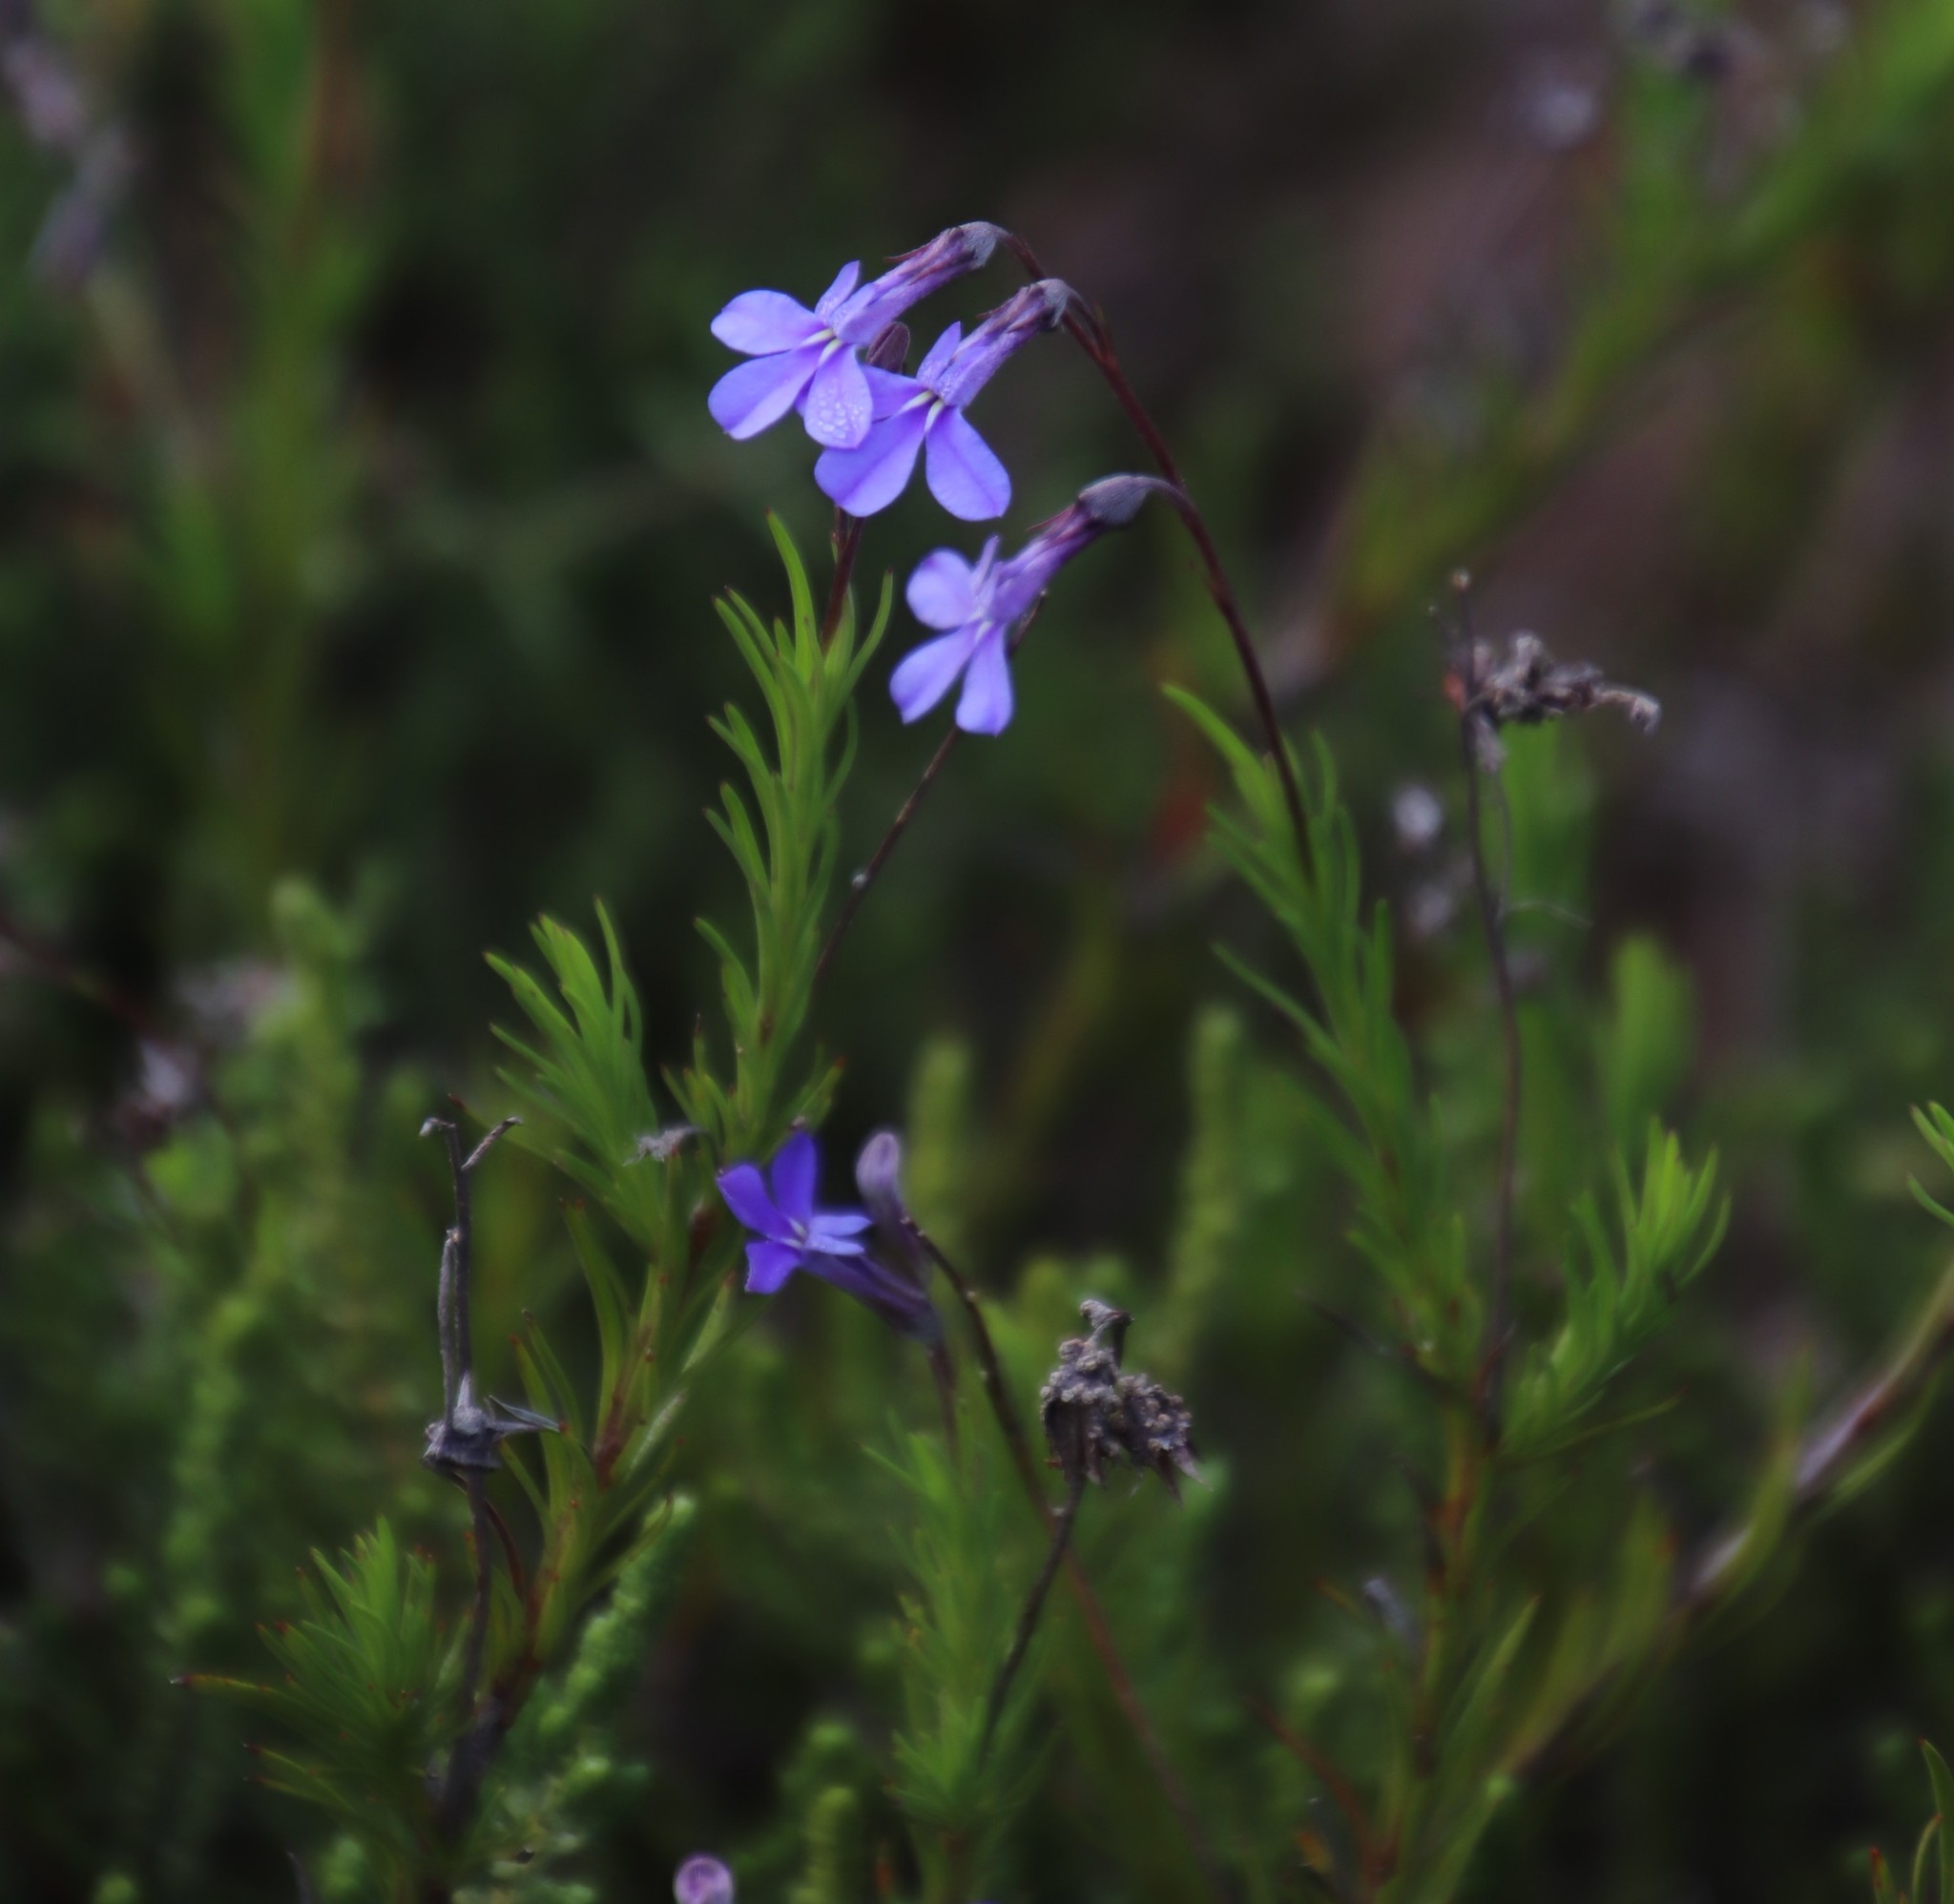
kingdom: Plantae
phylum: Tracheophyta
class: Magnoliopsida
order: Asterales
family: Campanulaceae
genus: Lobelia
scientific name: Lobelia pinifolia
